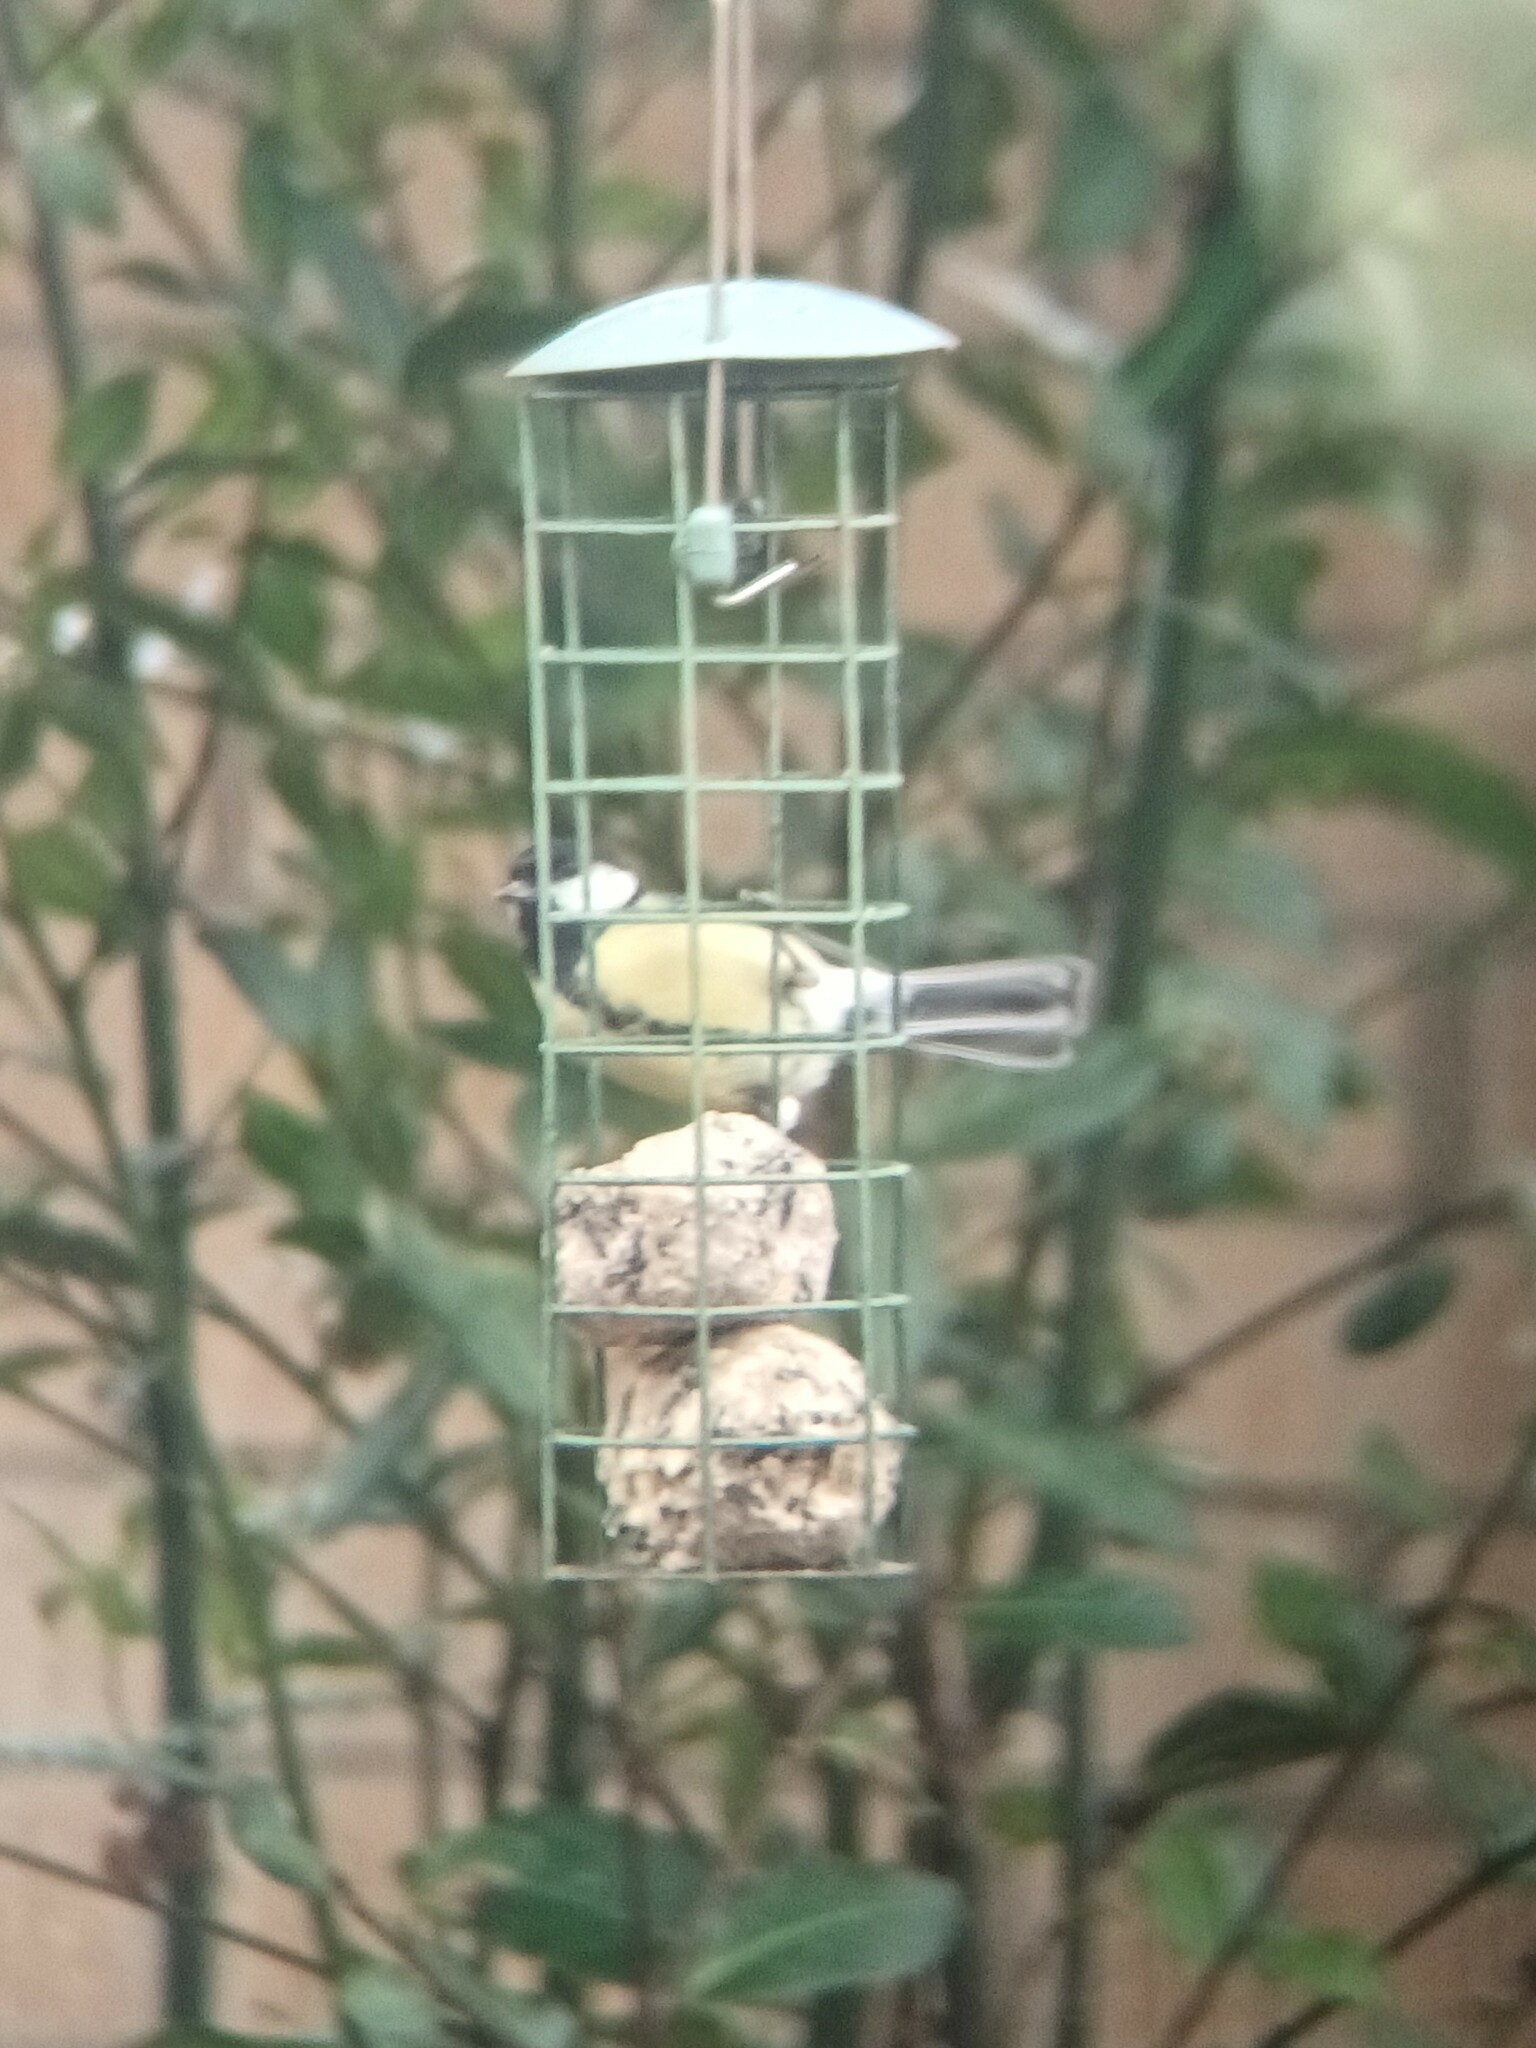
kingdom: Animalia
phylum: Chordata
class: Aves
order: Passeriformes
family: Paridae
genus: Parus
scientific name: Parus major
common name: Great tit
